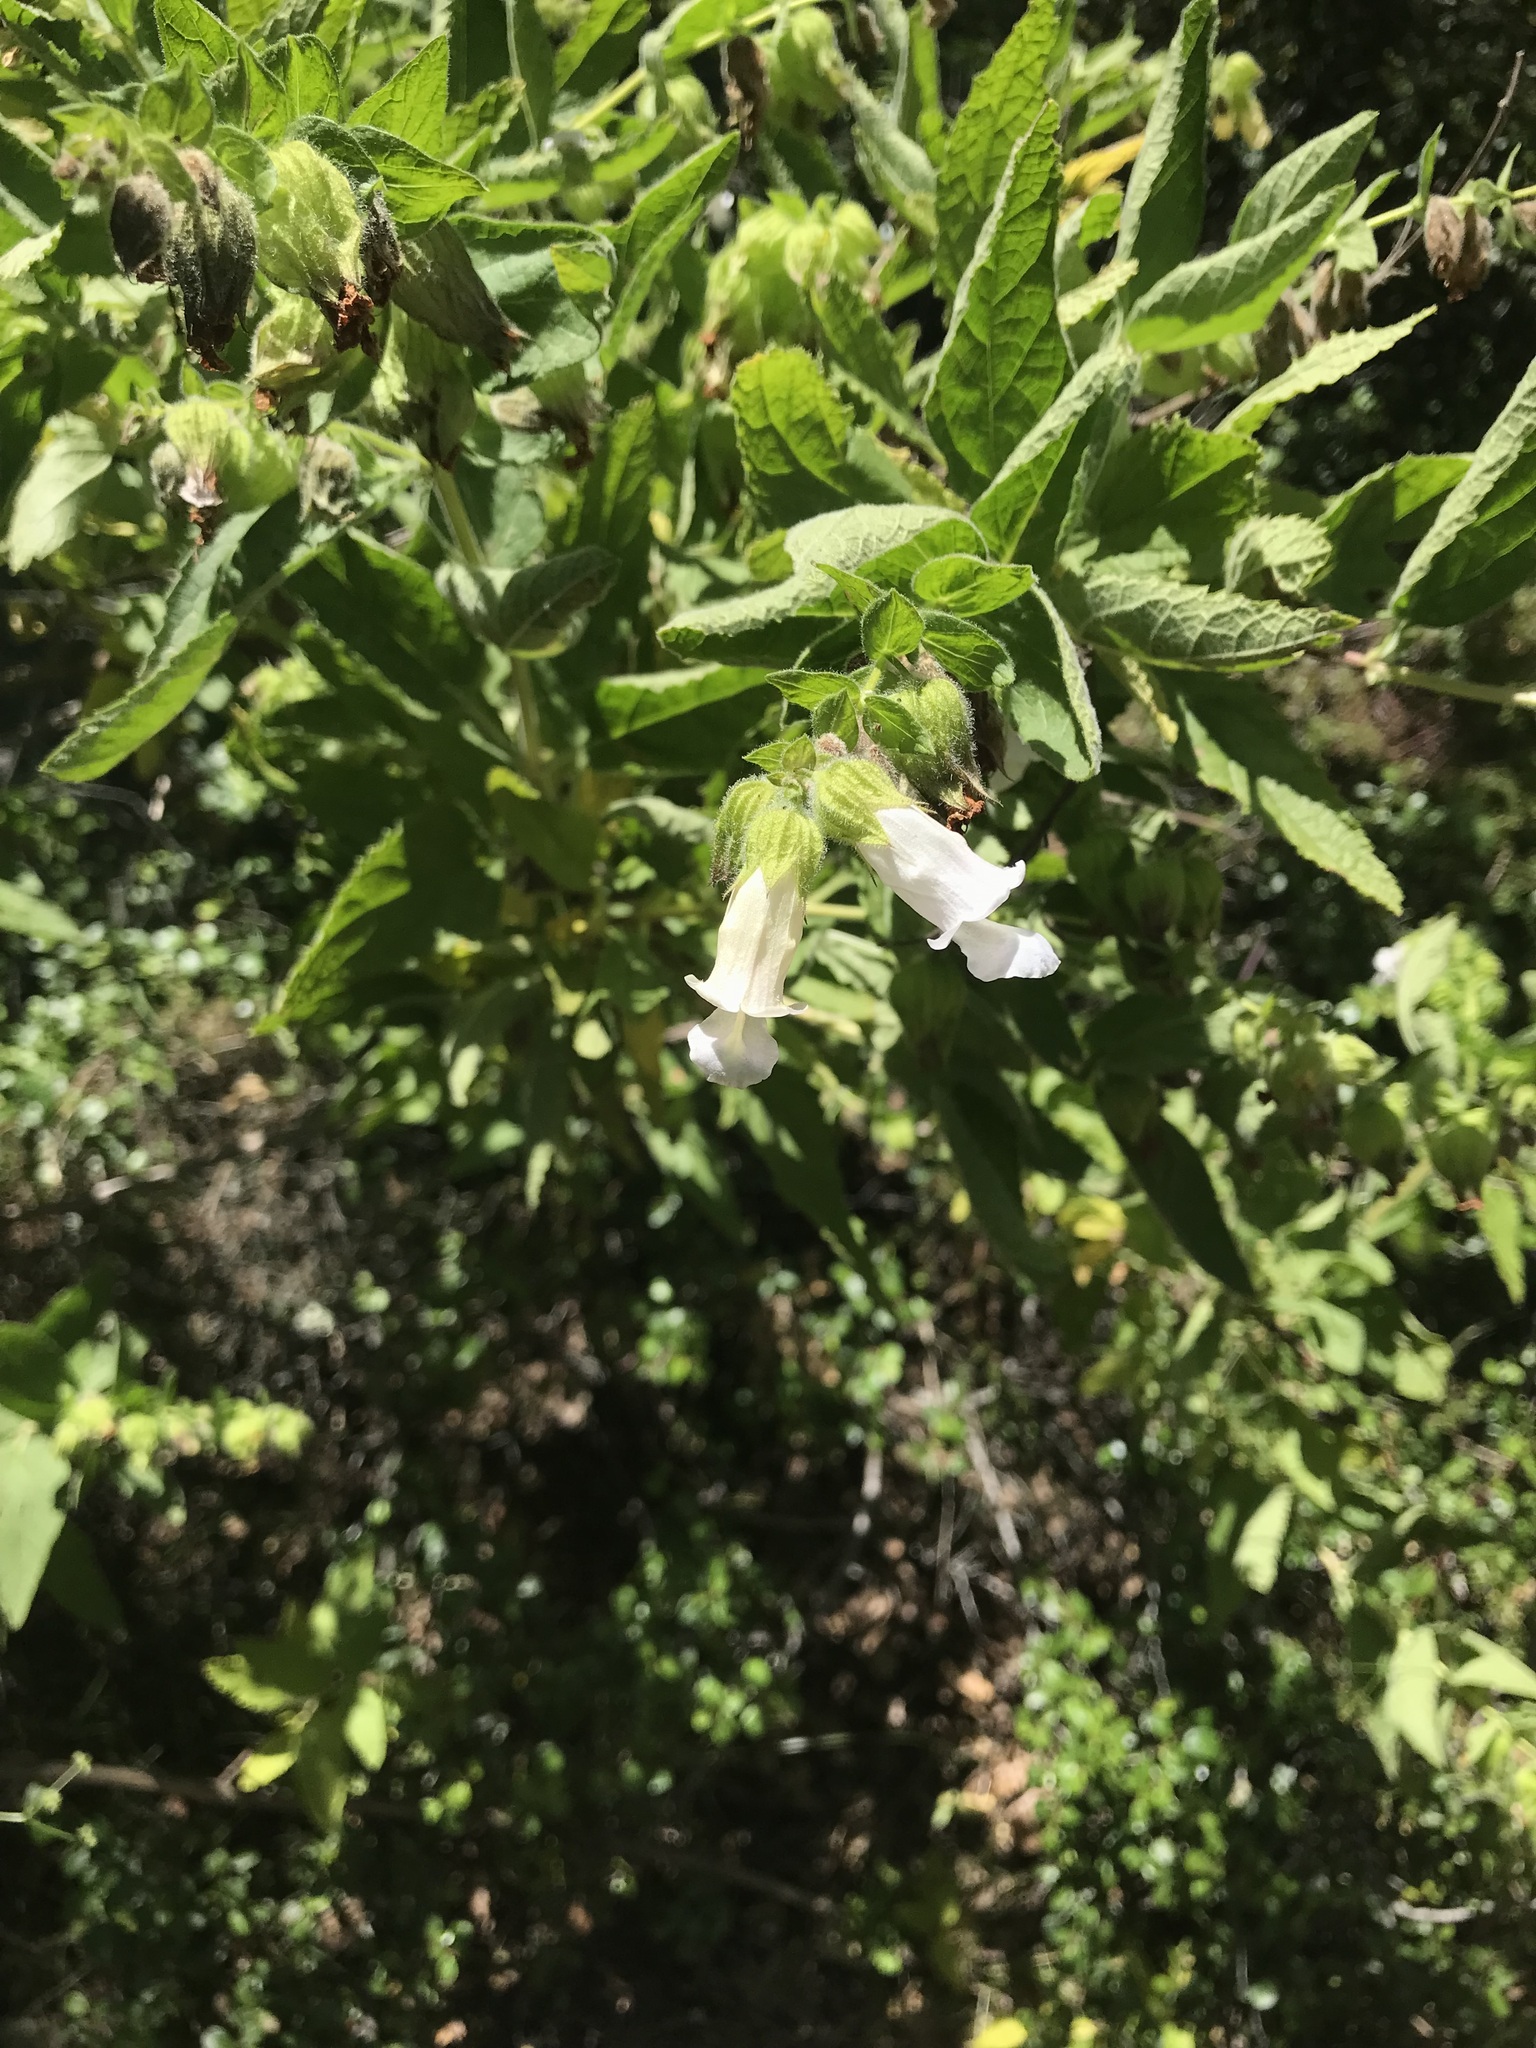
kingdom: Plantae
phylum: Tracheophyta
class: Magnoliopsida
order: Lamiales
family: Lamiaceae
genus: Lepechinia
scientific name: Lepechinia calycina
